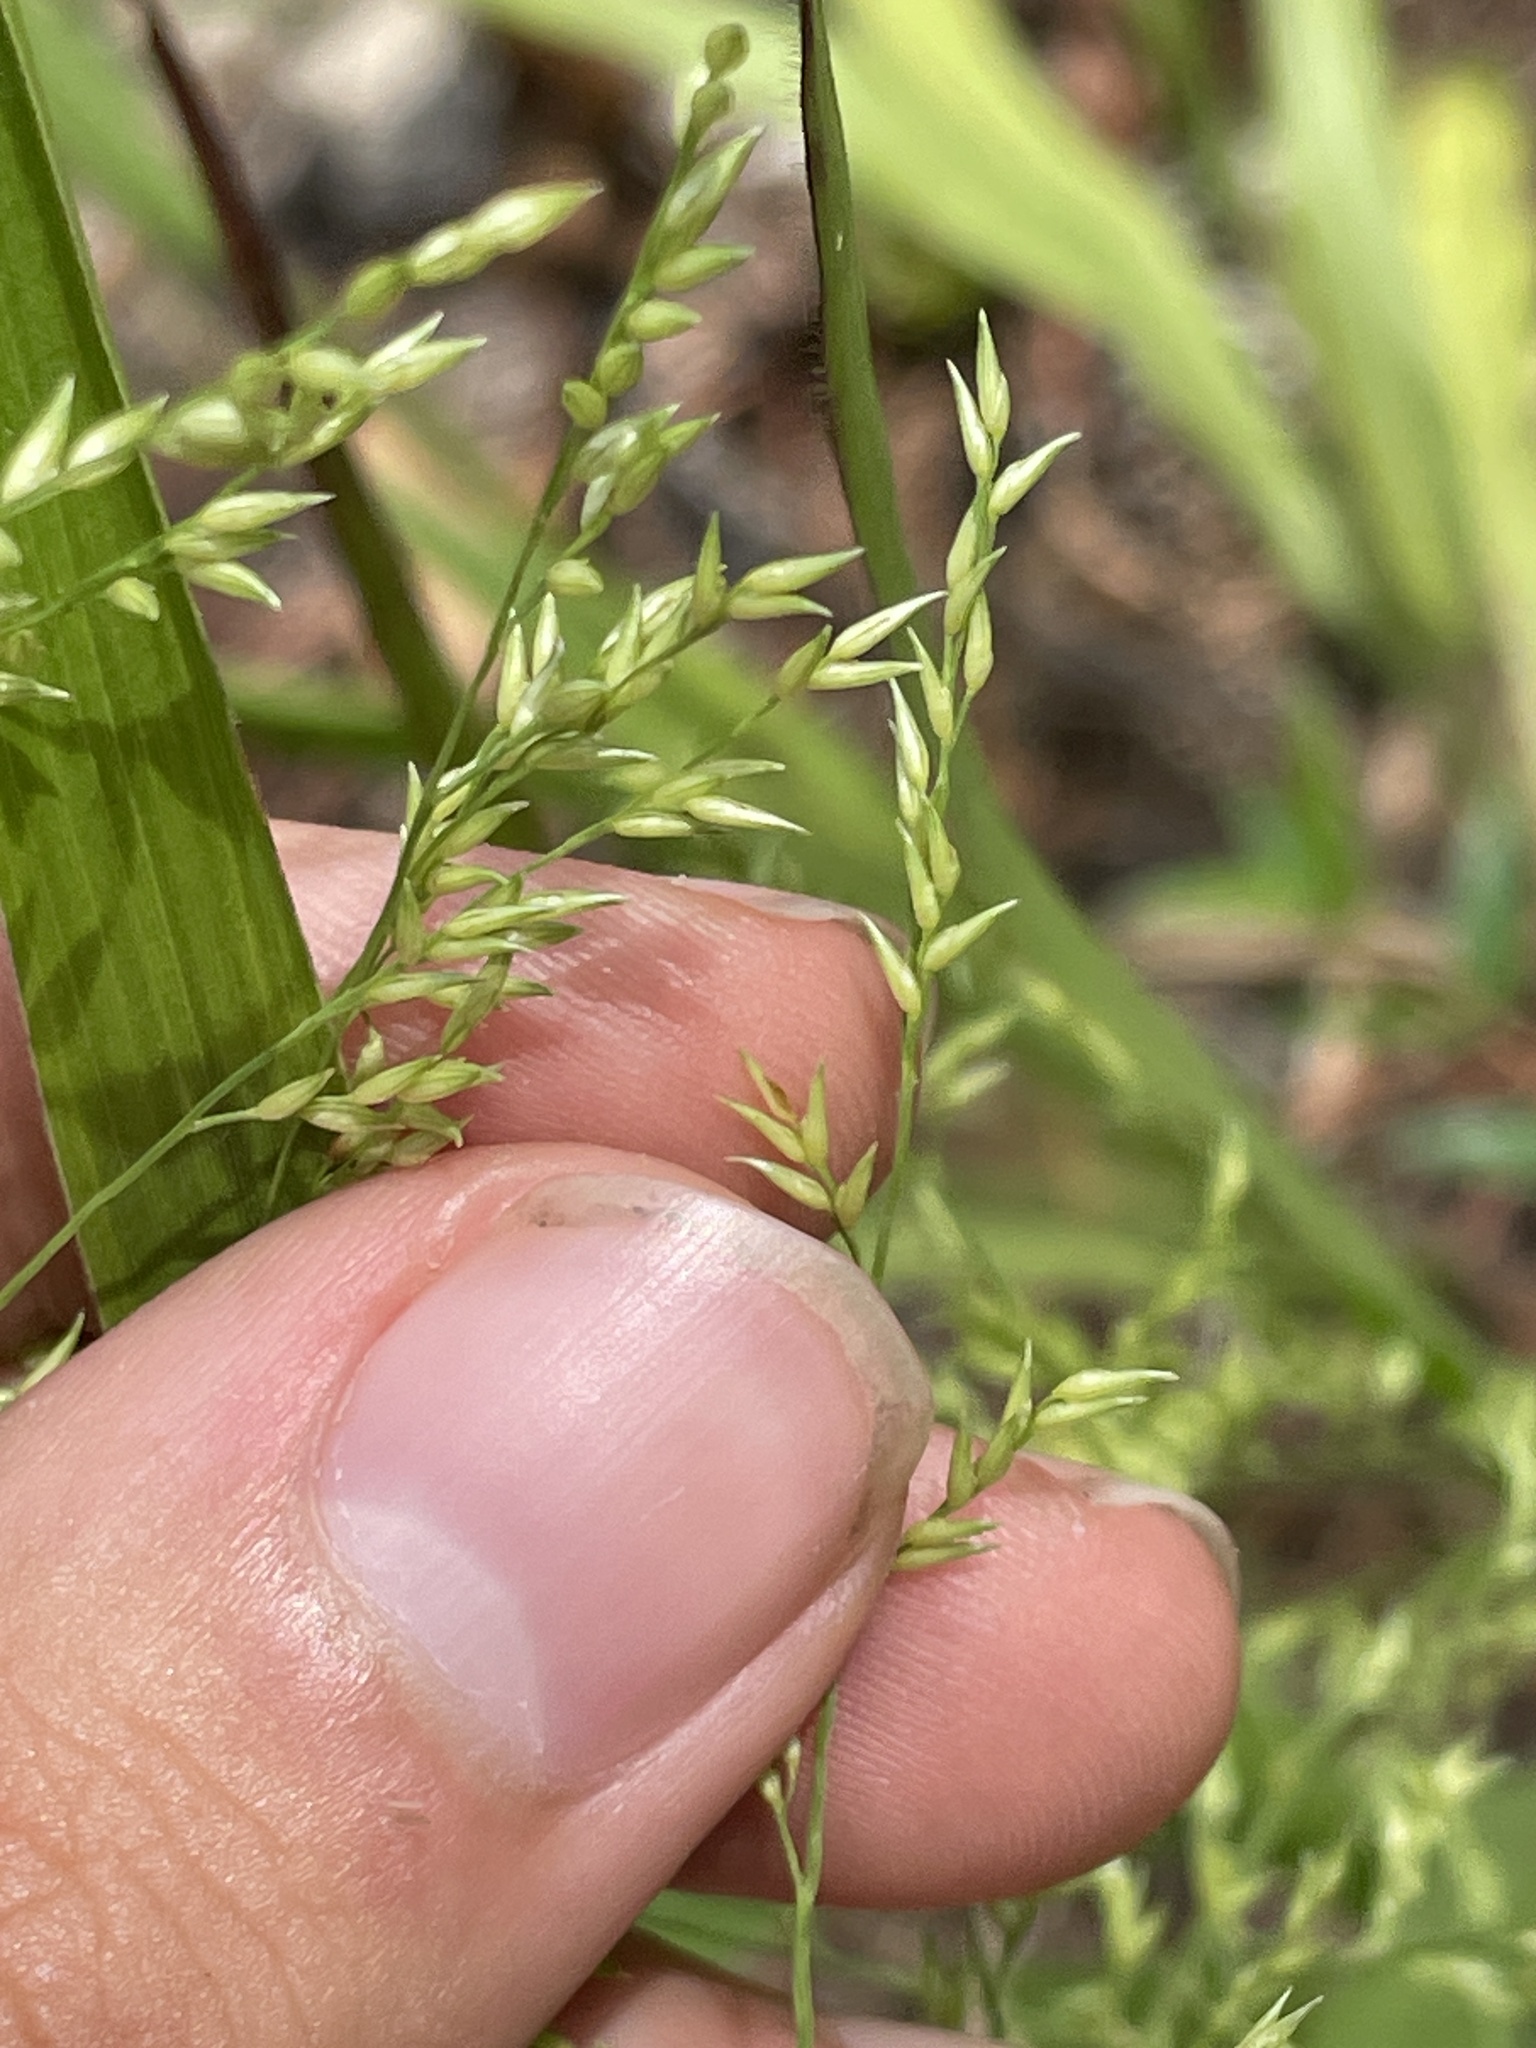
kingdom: Plantae
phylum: Tracheophyta
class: Liliopsida
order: Poales
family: Poaceae
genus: Coleataenia
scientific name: Coleataenia anceps
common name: Beaked panic grass
